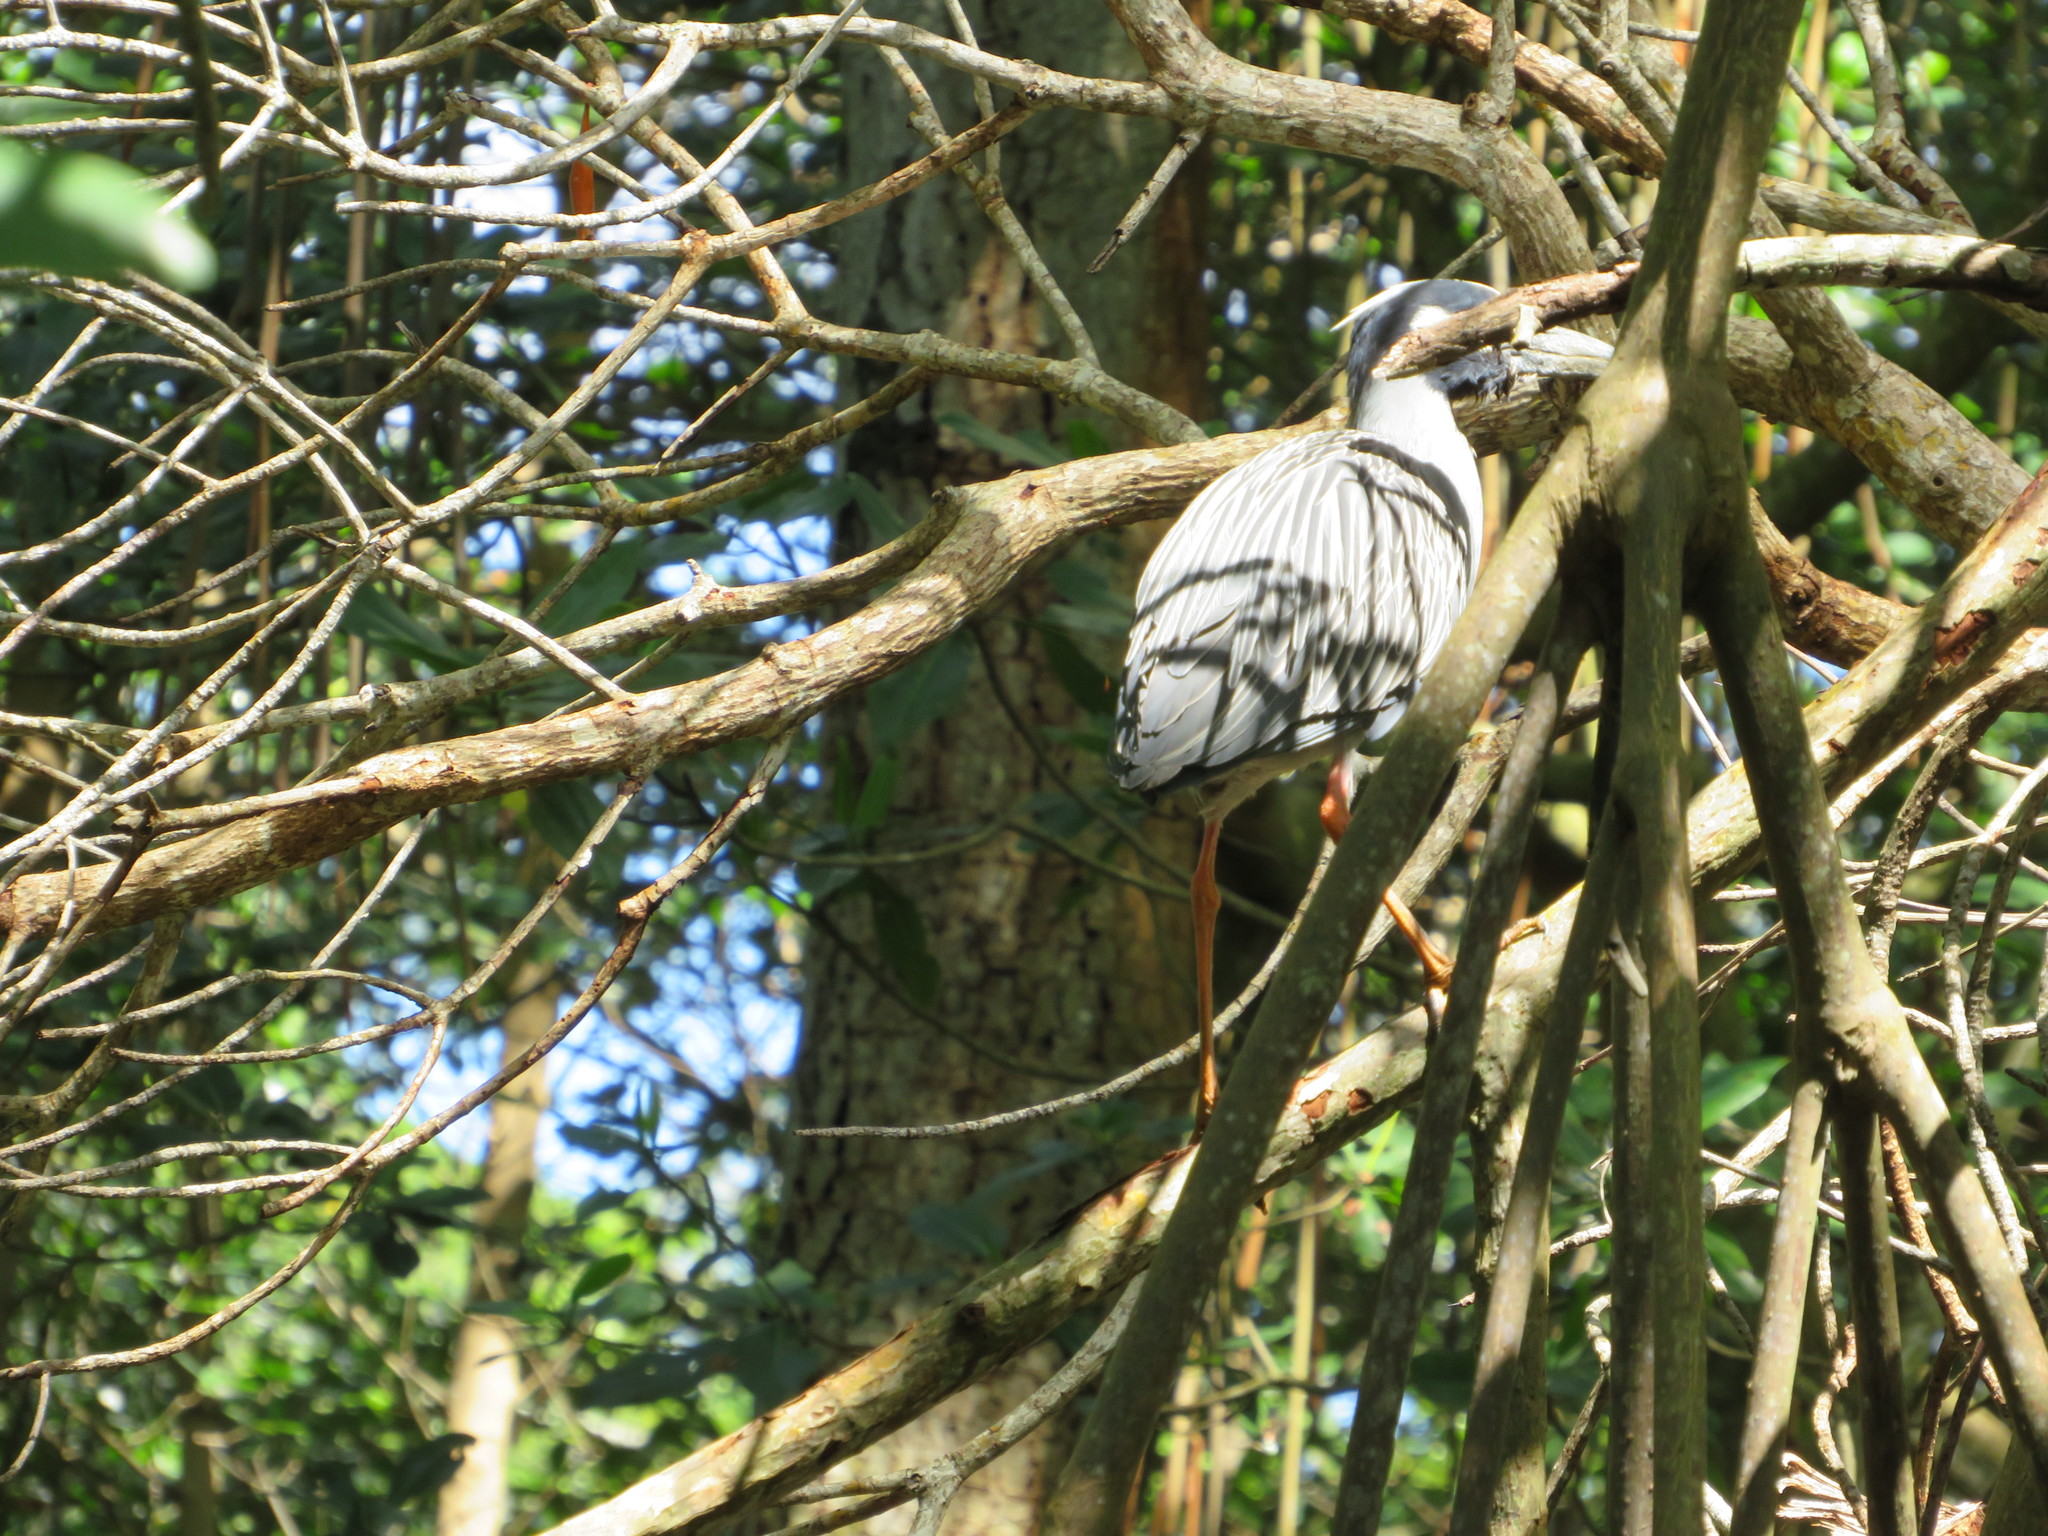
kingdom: Animalia
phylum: Chordata
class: Aves
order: Pelecaniformes
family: Ardeidae
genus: Nyctanassa
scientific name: Nyctanassa violacea
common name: Yellow-crowned night heron
